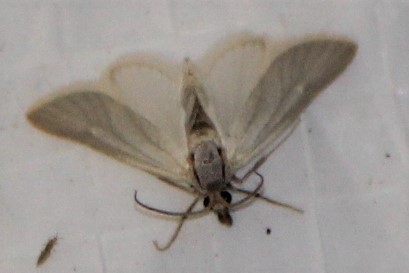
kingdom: Animalia
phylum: Arthropoda
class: Insecta
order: Lepidoptera
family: Crambidae
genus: Acentria
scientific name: Acentria ephemerella
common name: European water moth
